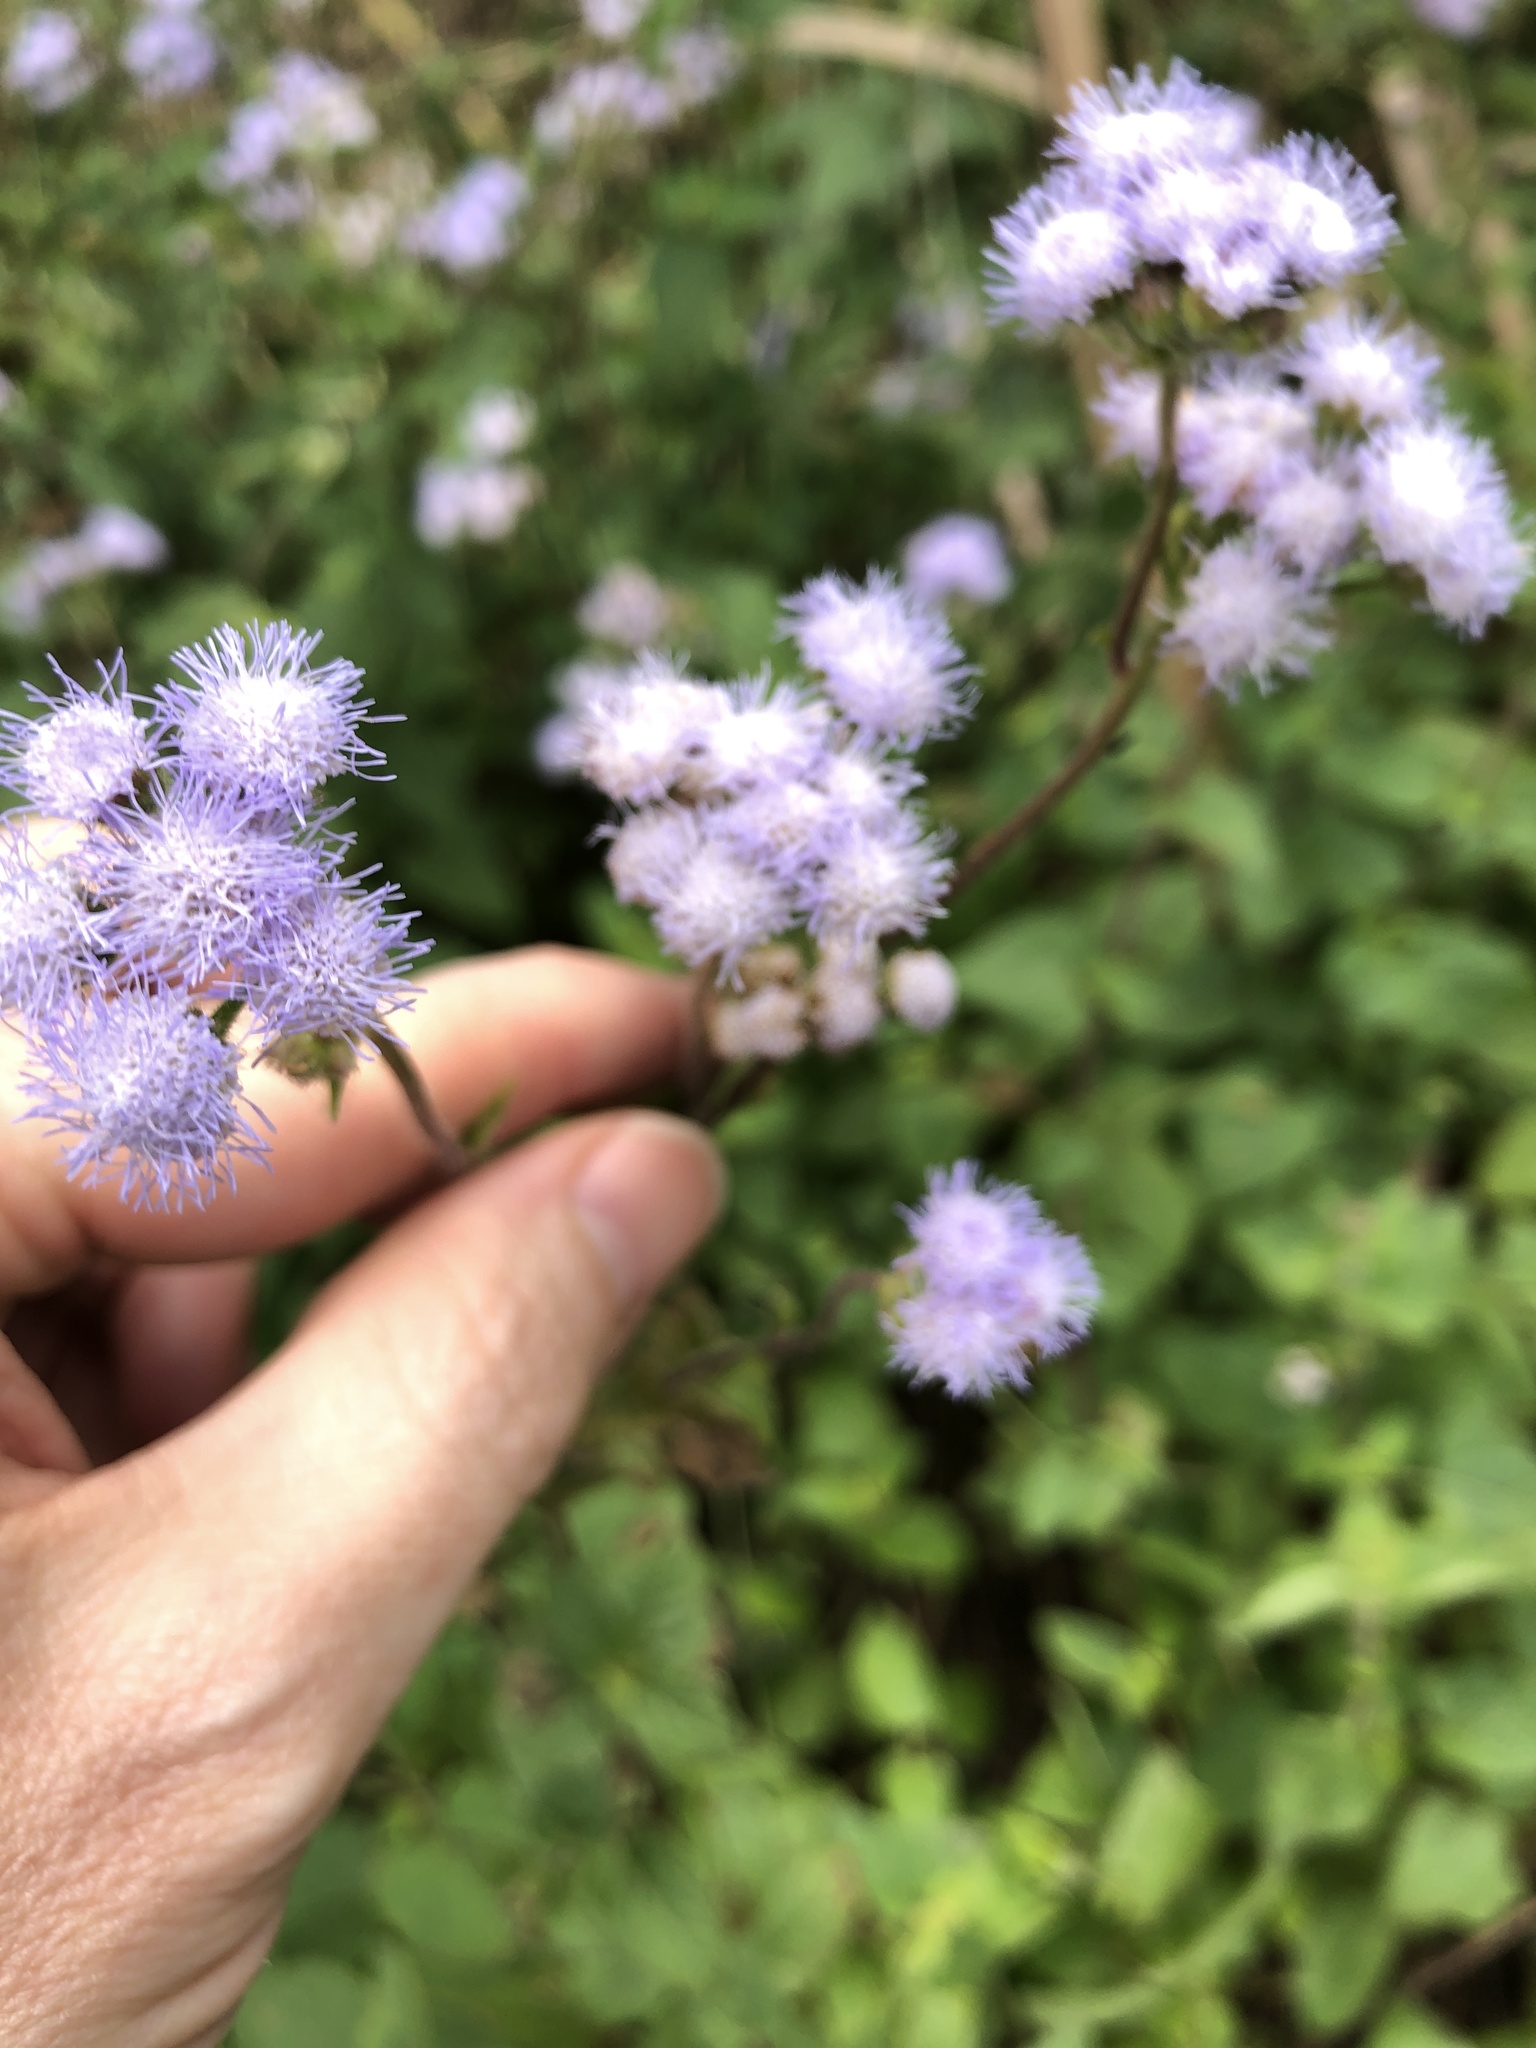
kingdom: Plantae
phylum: Tracheophyta
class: Magnoliopsida
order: Asterales
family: Asteraceae
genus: Ageratum
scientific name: Ageratum houstonianum
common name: Bluemink
